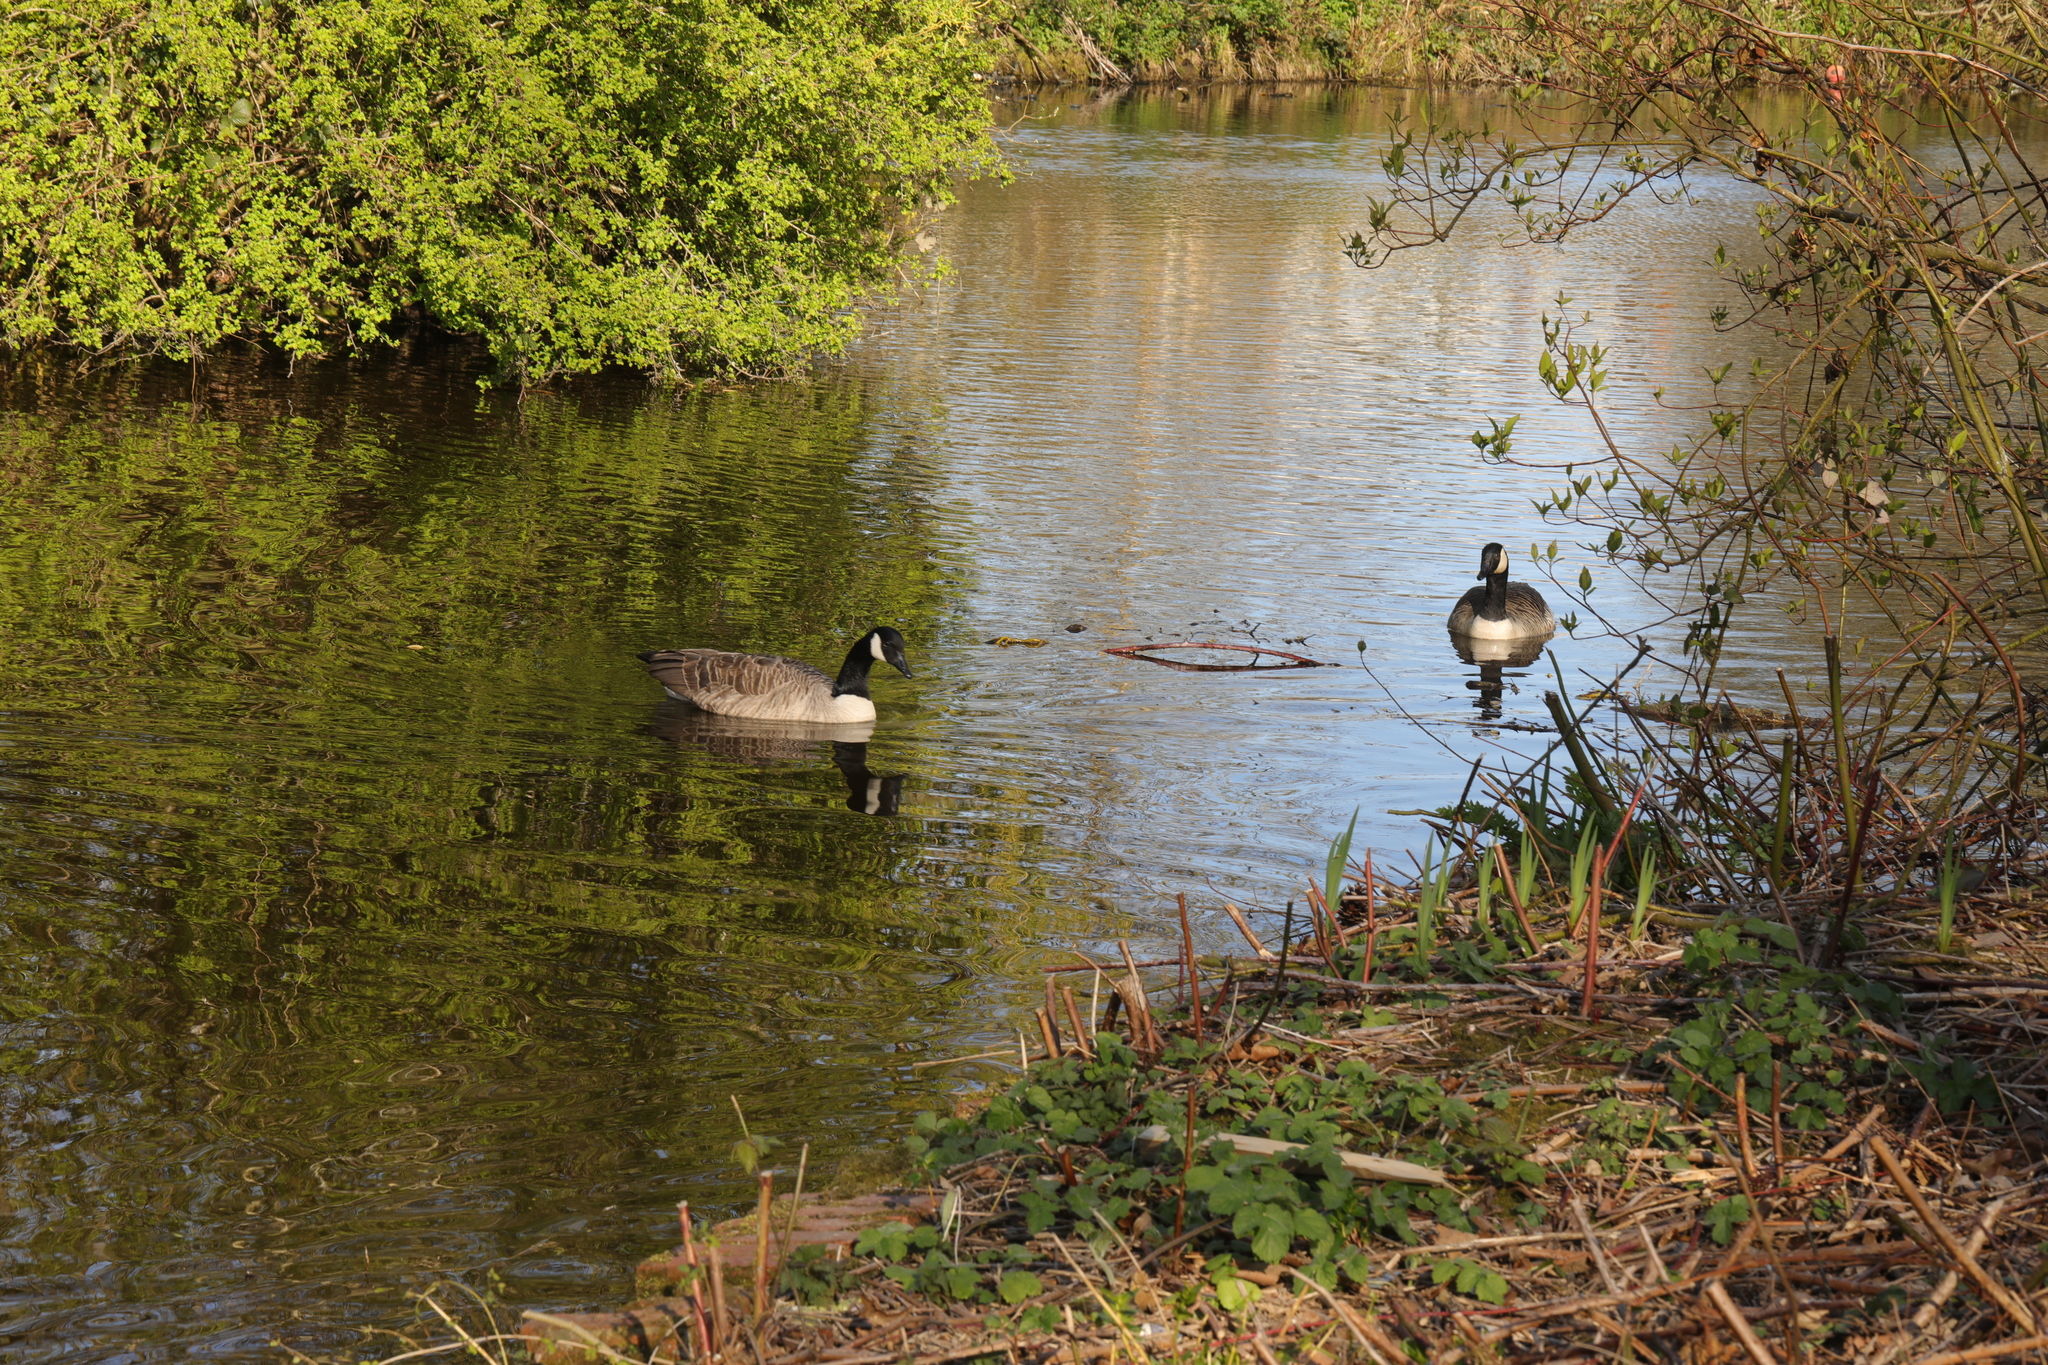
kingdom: Animalia
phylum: Chordata
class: Aves
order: Anseriformes
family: Anatidae
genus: Branta
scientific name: Branta canadensis
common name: Canada goose
